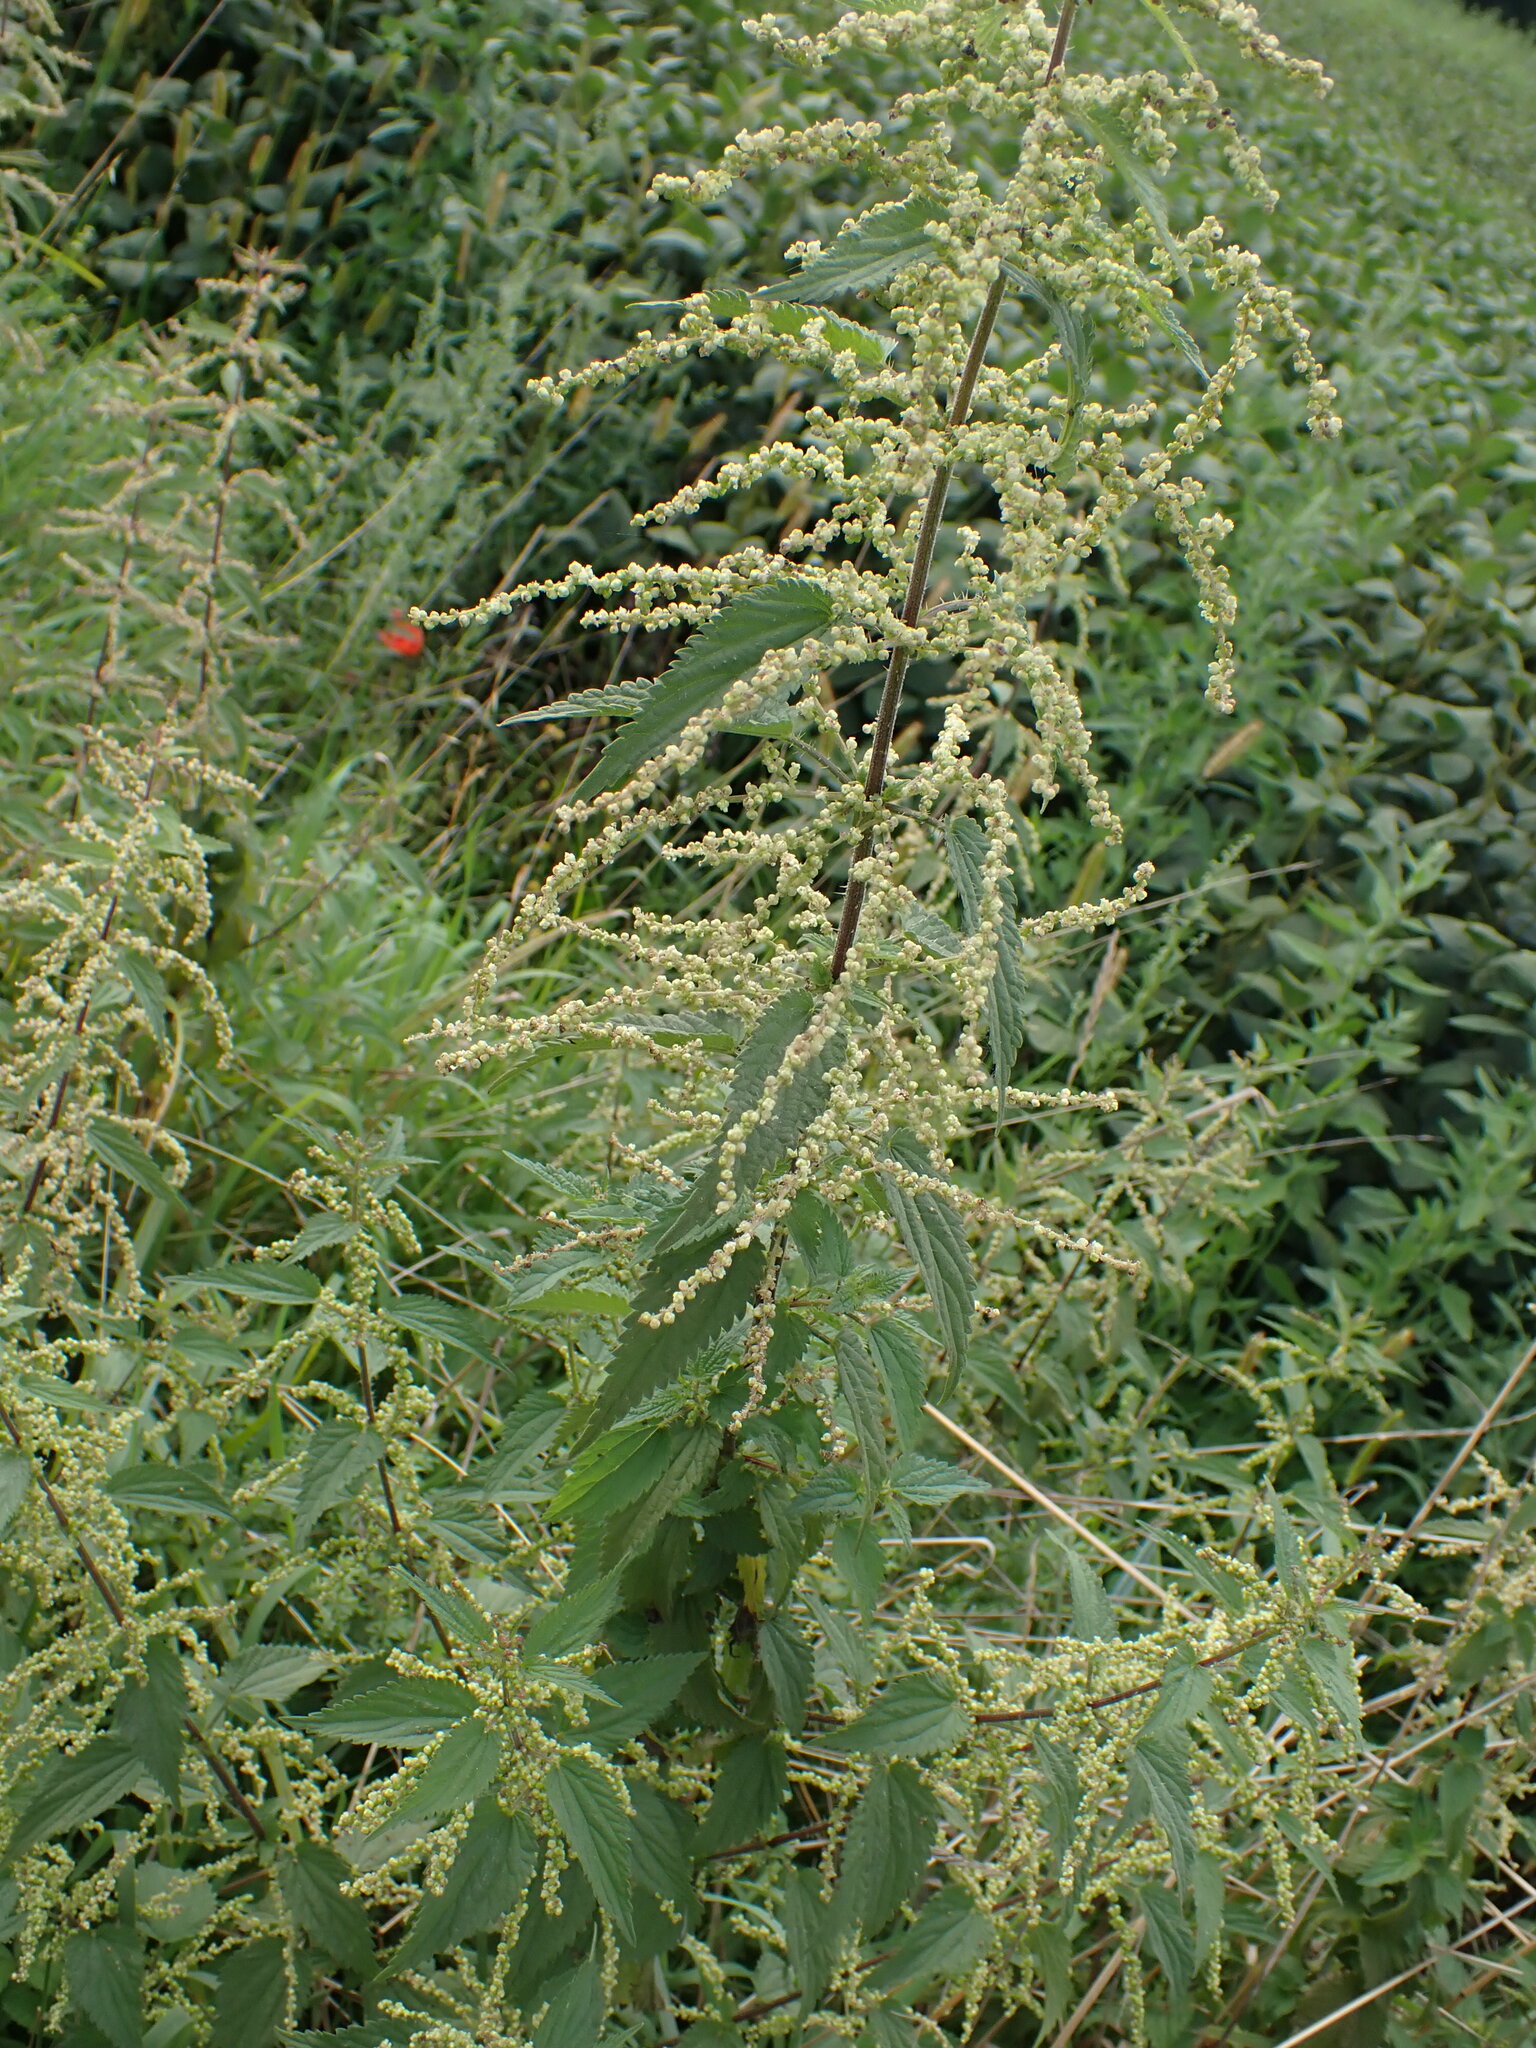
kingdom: Plantae
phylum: Tracheophyta
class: Magnoliopsida
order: Rosales
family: Urticaceae
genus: Urtica
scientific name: Urtica dioica
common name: Common nettle
